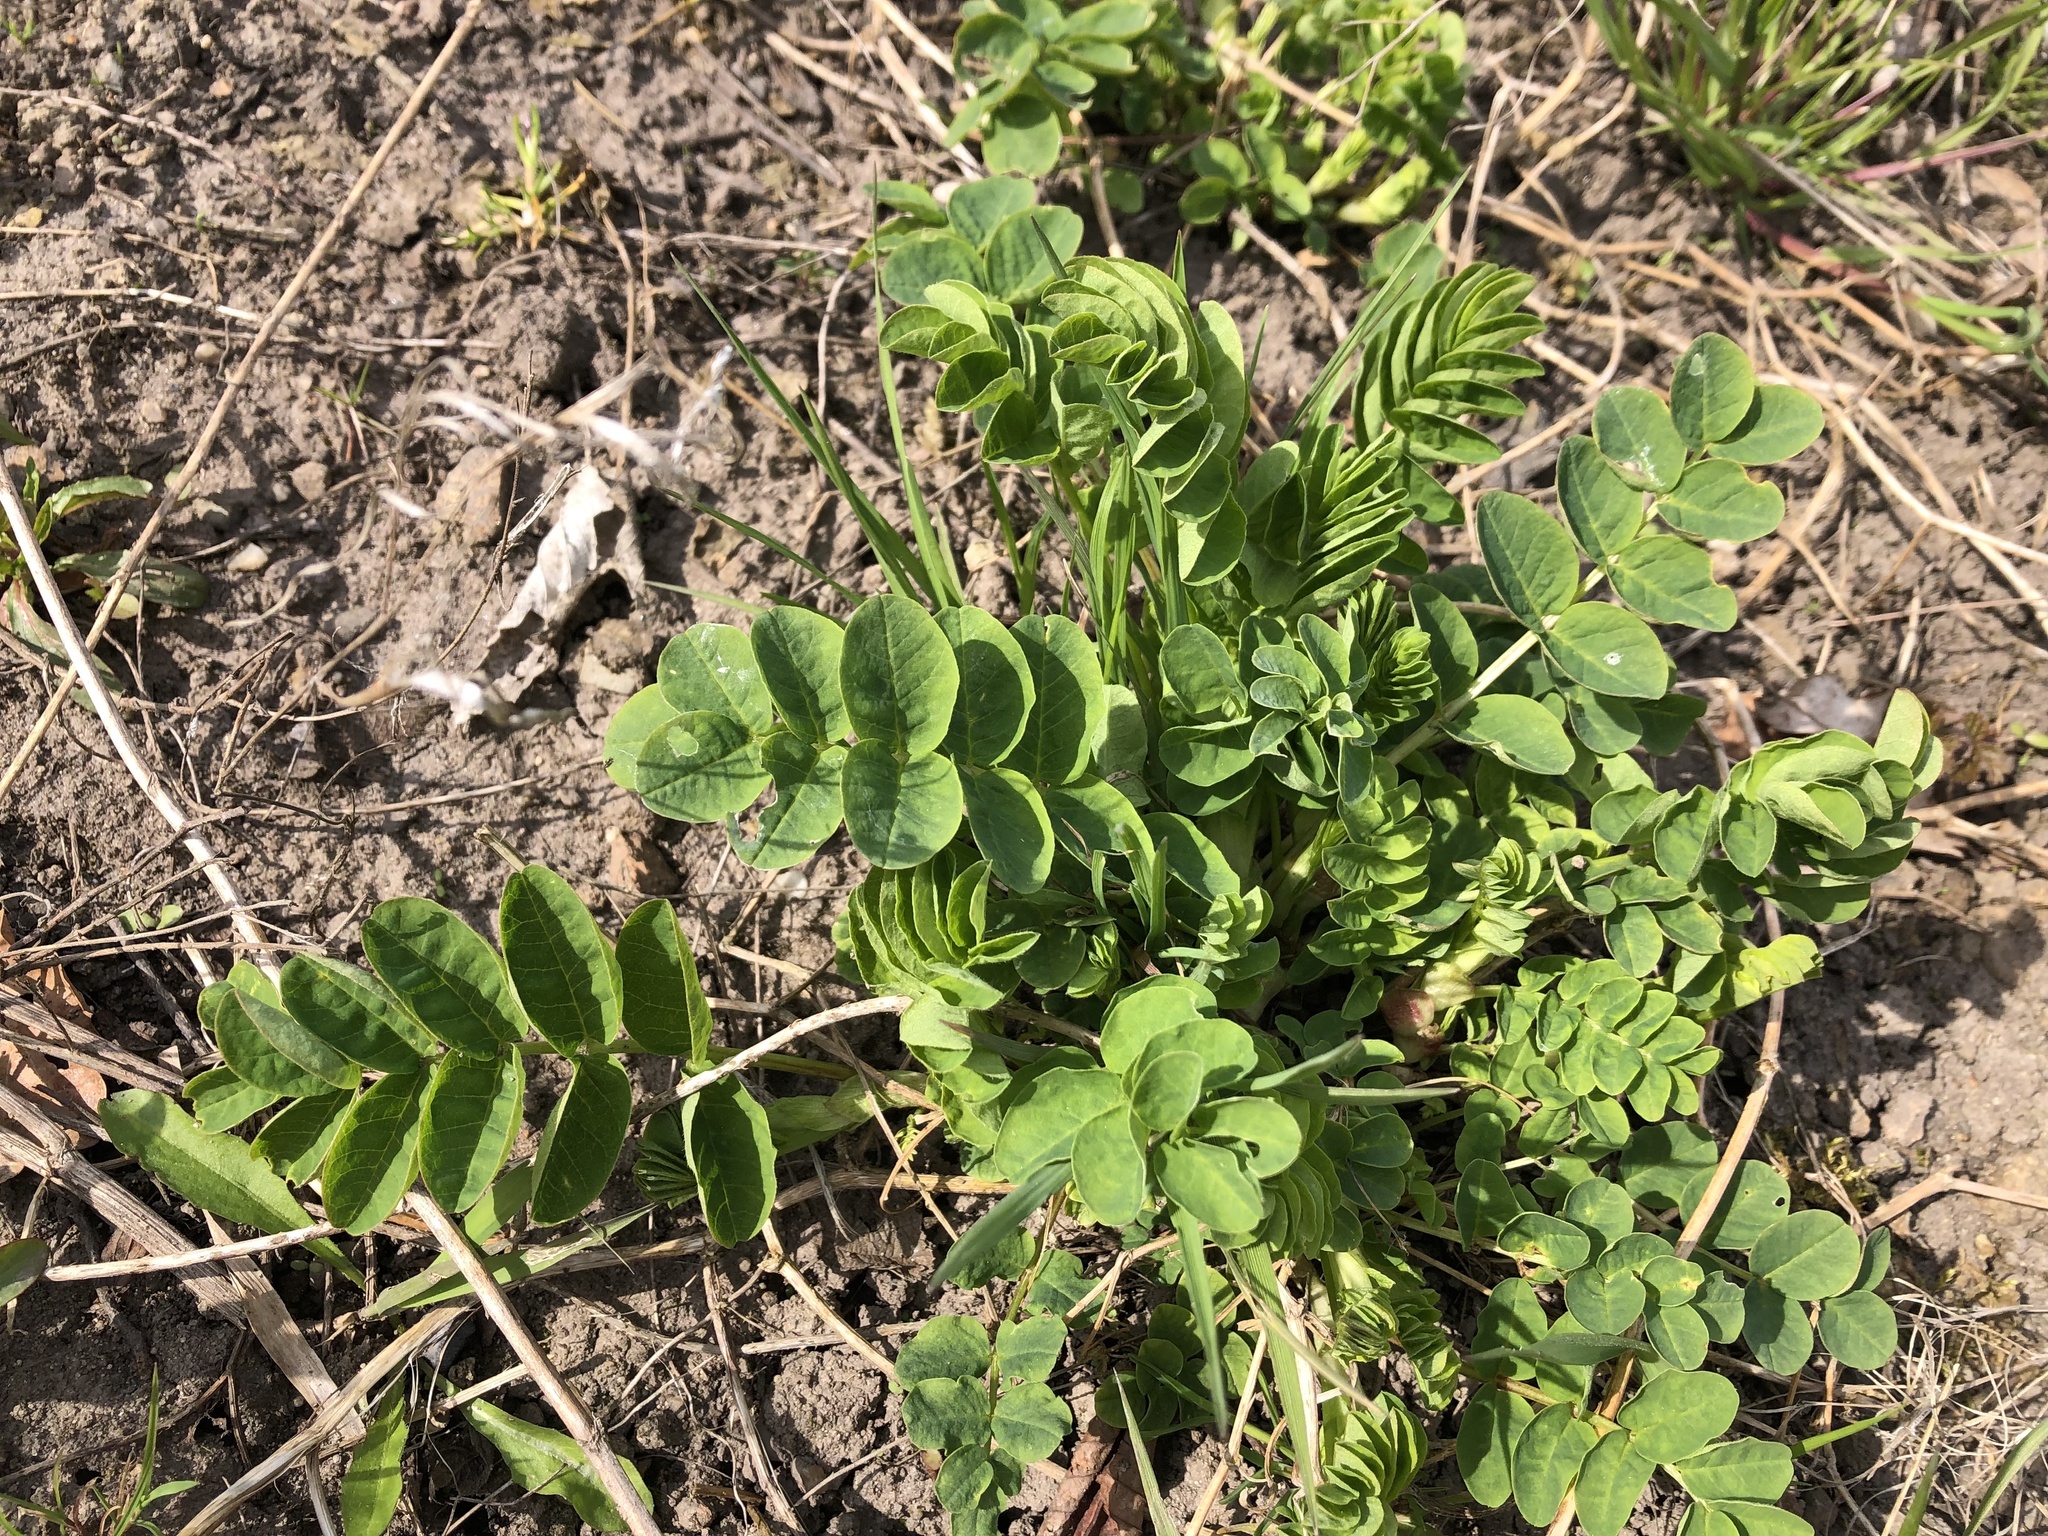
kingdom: Plantae
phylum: Tracheophyta
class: Magnoliopsida
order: Fabales
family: Fabaceae
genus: Astragalus
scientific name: Astragalus glycyphyllos
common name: Wild liquorice
